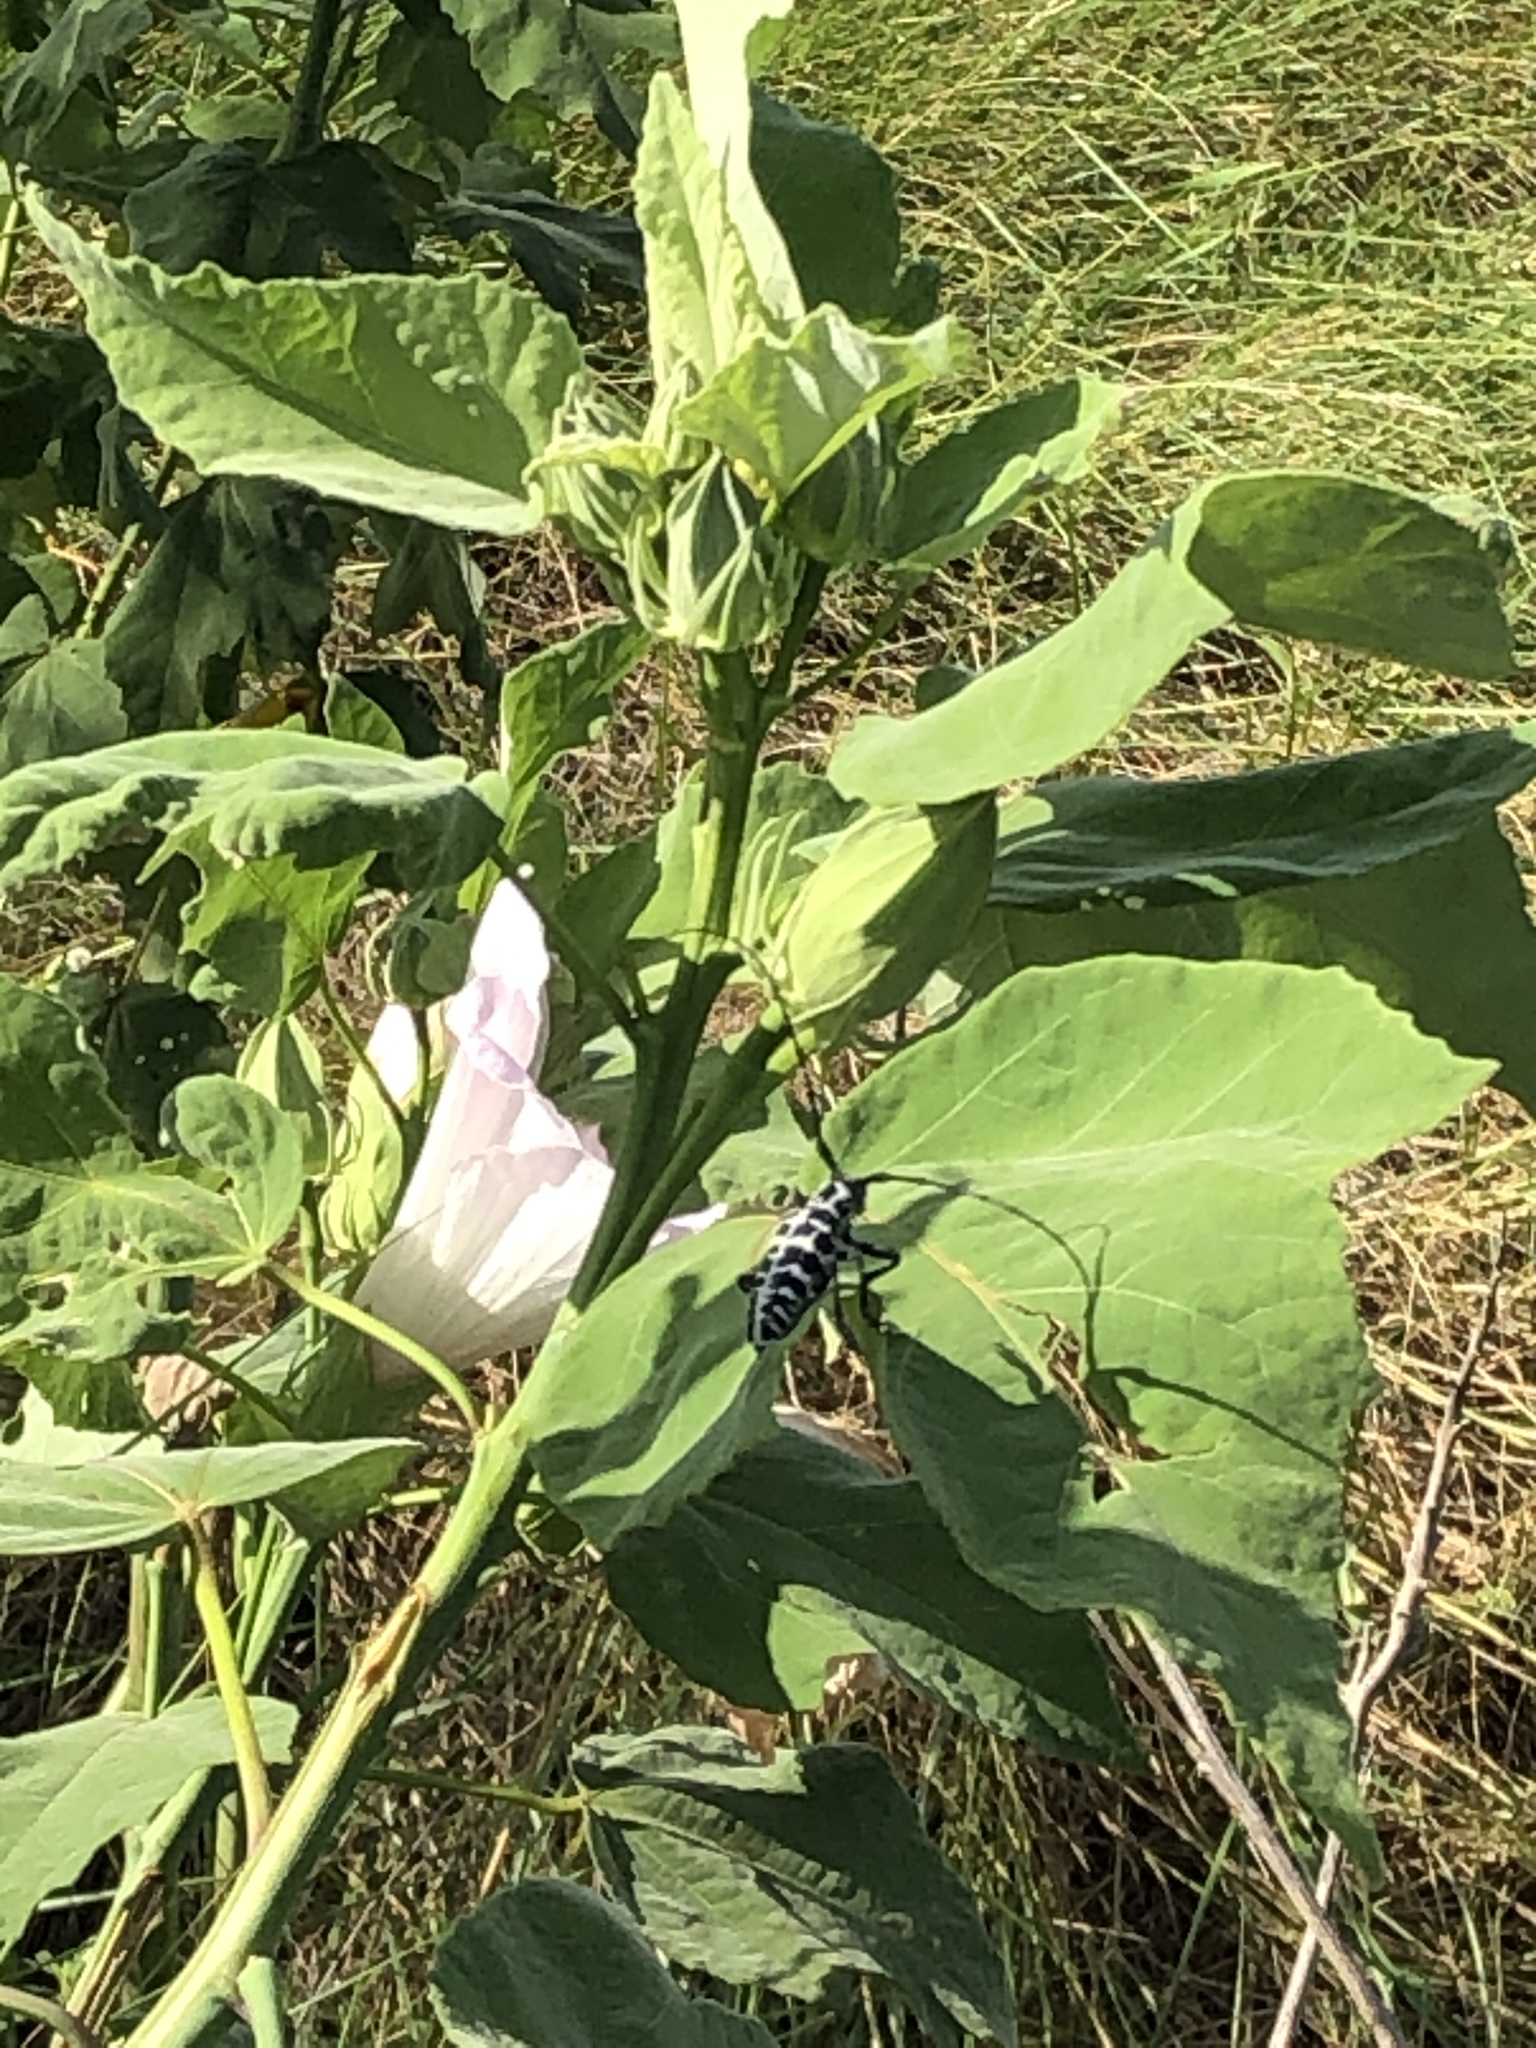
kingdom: Animalia
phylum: Arthropoda
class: Insecta
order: Coleoptera
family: Cerambycidae
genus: Plectrodera
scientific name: Plectrodera scalator
